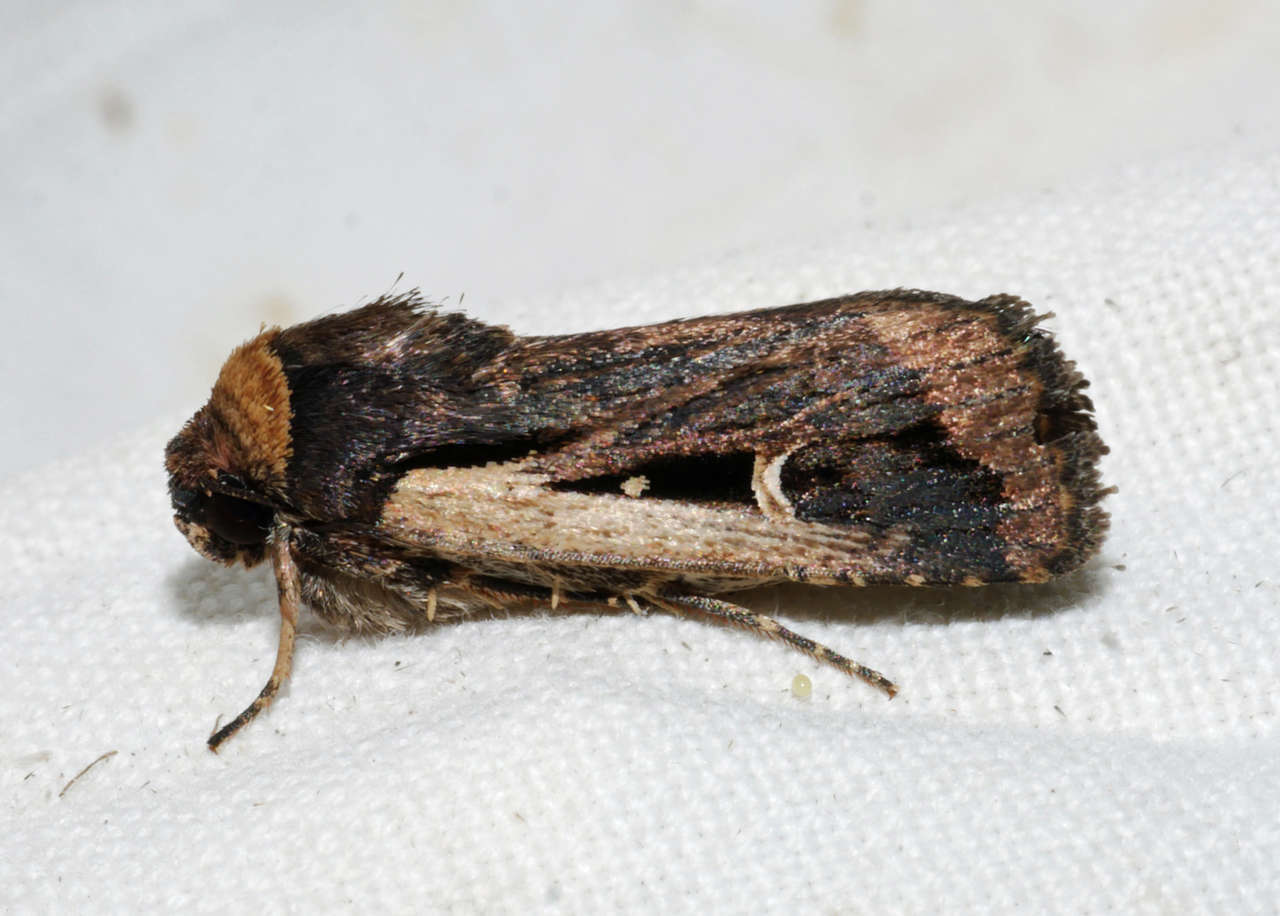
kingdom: Animalia
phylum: Arthropoda
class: Insecta
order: Lepidoptera
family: Noctuidae
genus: Proteuxoa
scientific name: Proteuxoa tortisigna
